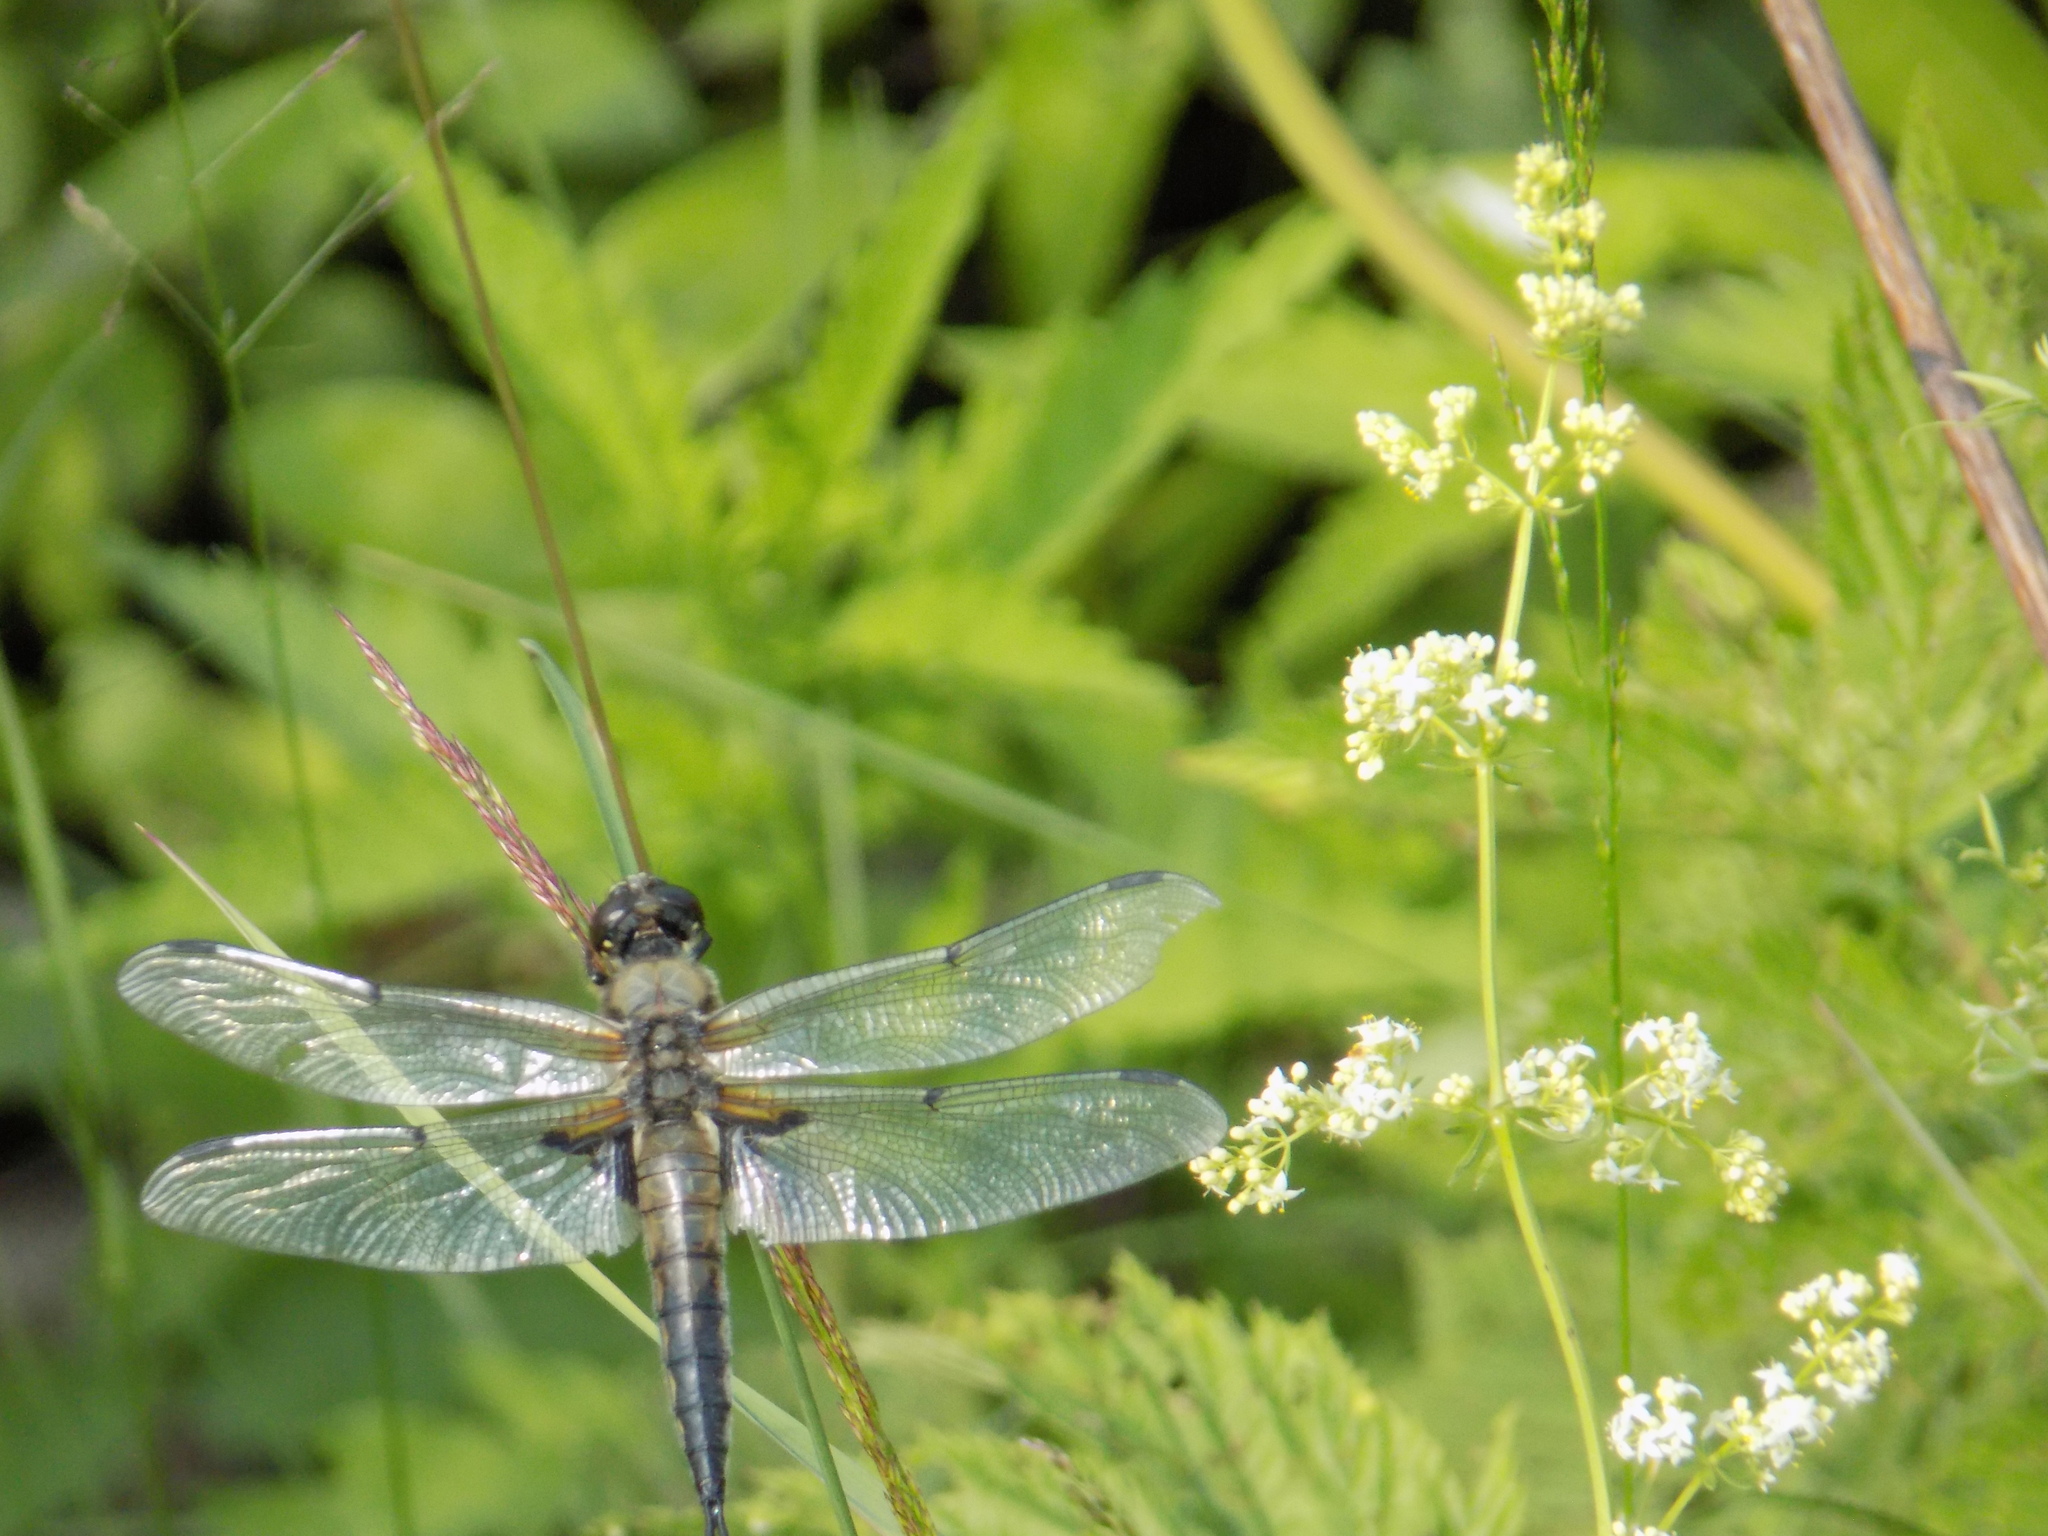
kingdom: Animalia
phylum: Arthropoda
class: Insecta
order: Odonata
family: Libellulidae
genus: Libellula
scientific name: Libellula quadrimaculata
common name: Four-spotted chaser
